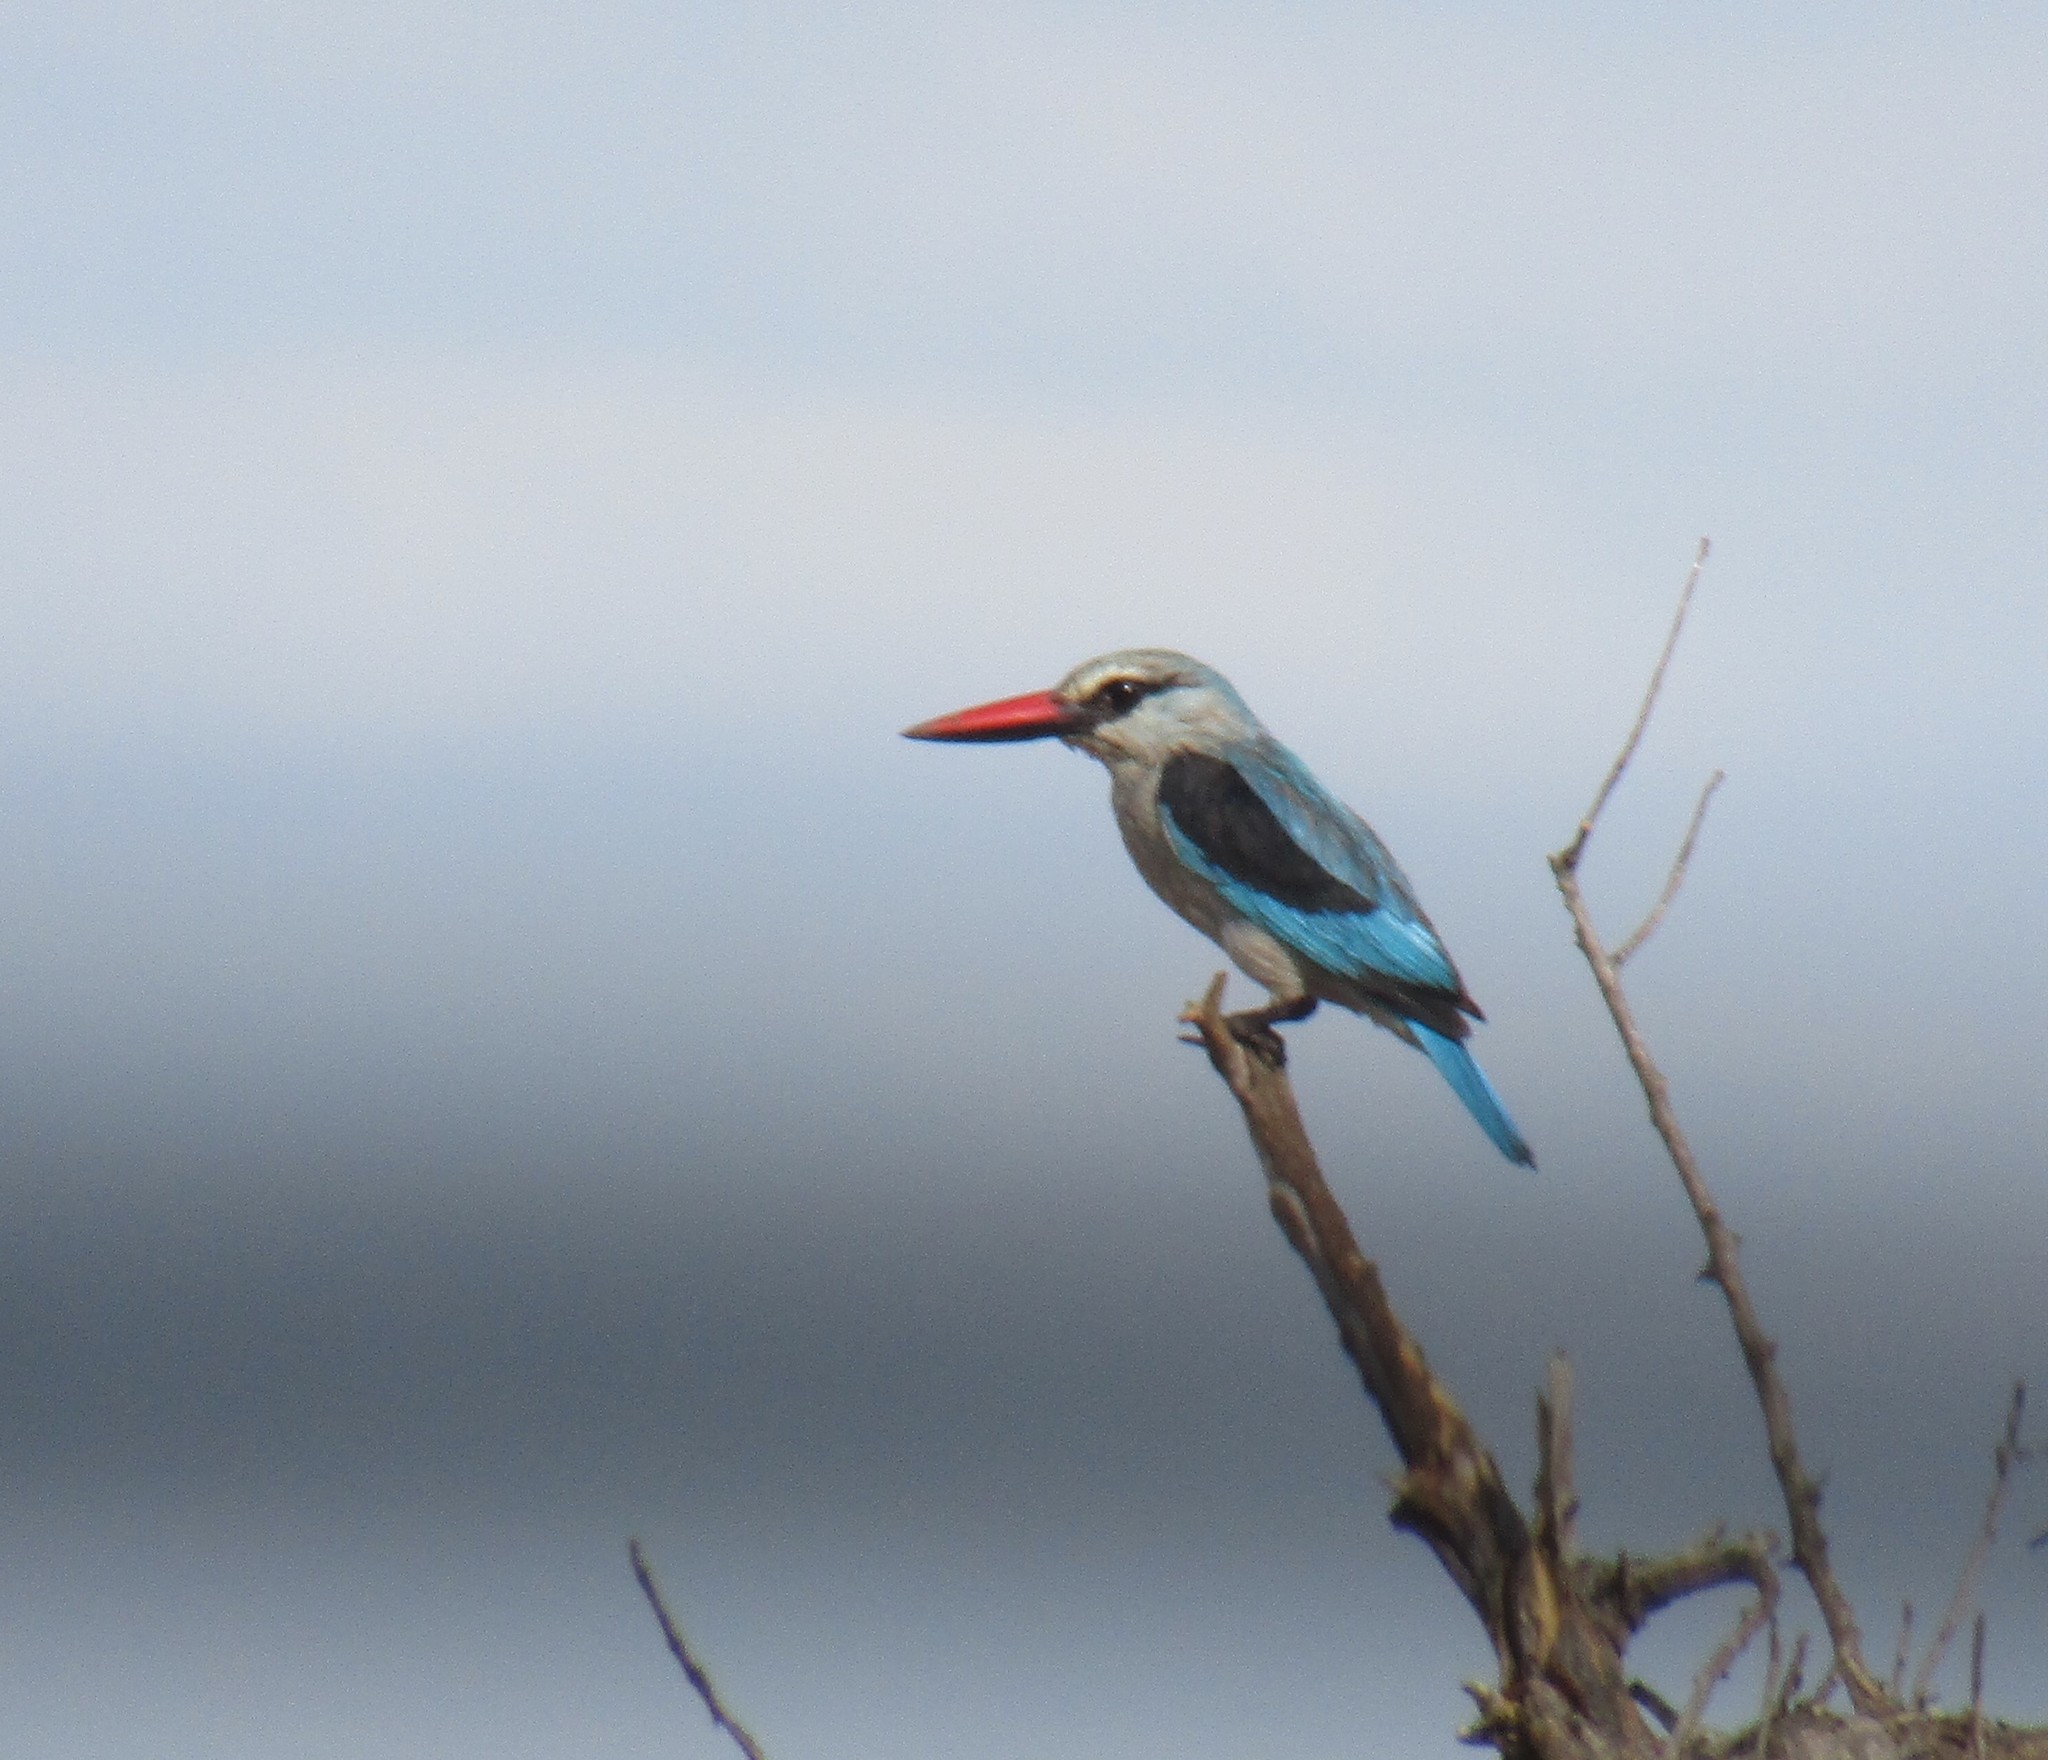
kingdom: Animalia
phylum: Chordata
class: Aves
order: Coraciiformes
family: Alcedinidae
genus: Halcyon
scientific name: Halcyon senegalensis
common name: Woodland kingfisher
